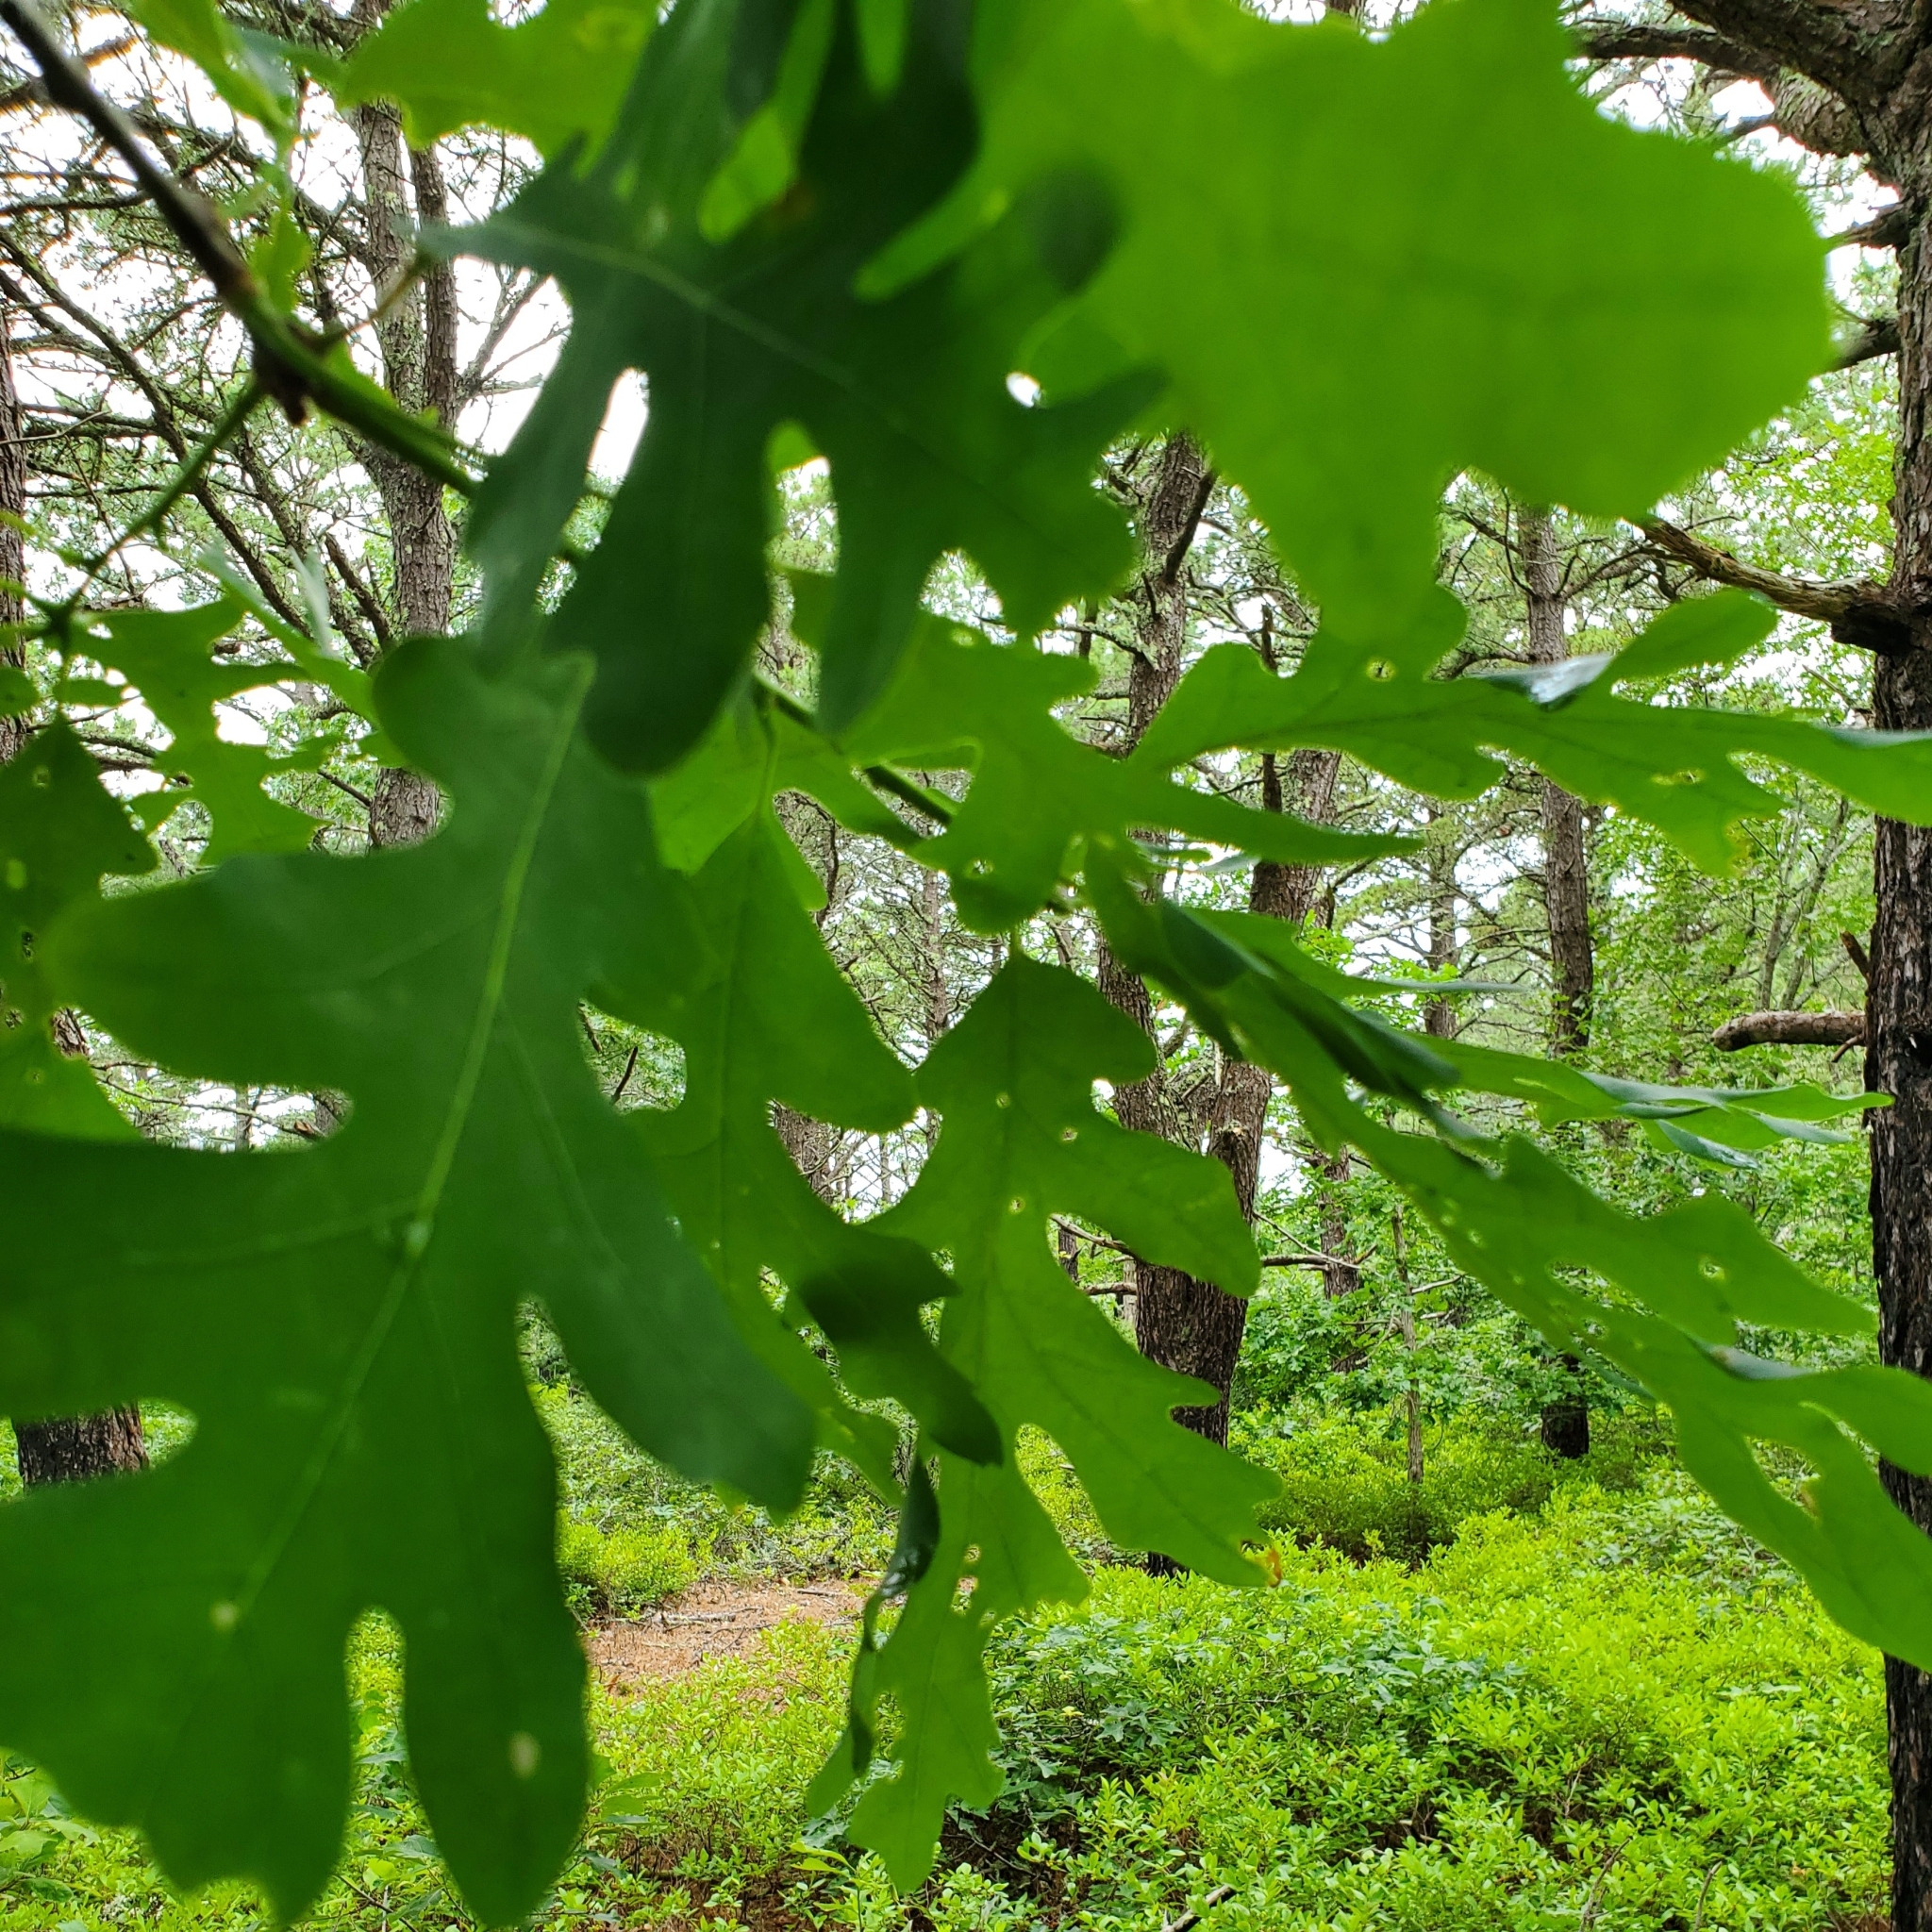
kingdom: Plantae
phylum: Tracheophyta
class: Magnoliopsida
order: Fagales
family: Fagaceae
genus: Quercus
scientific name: Quercus alba
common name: White oak
